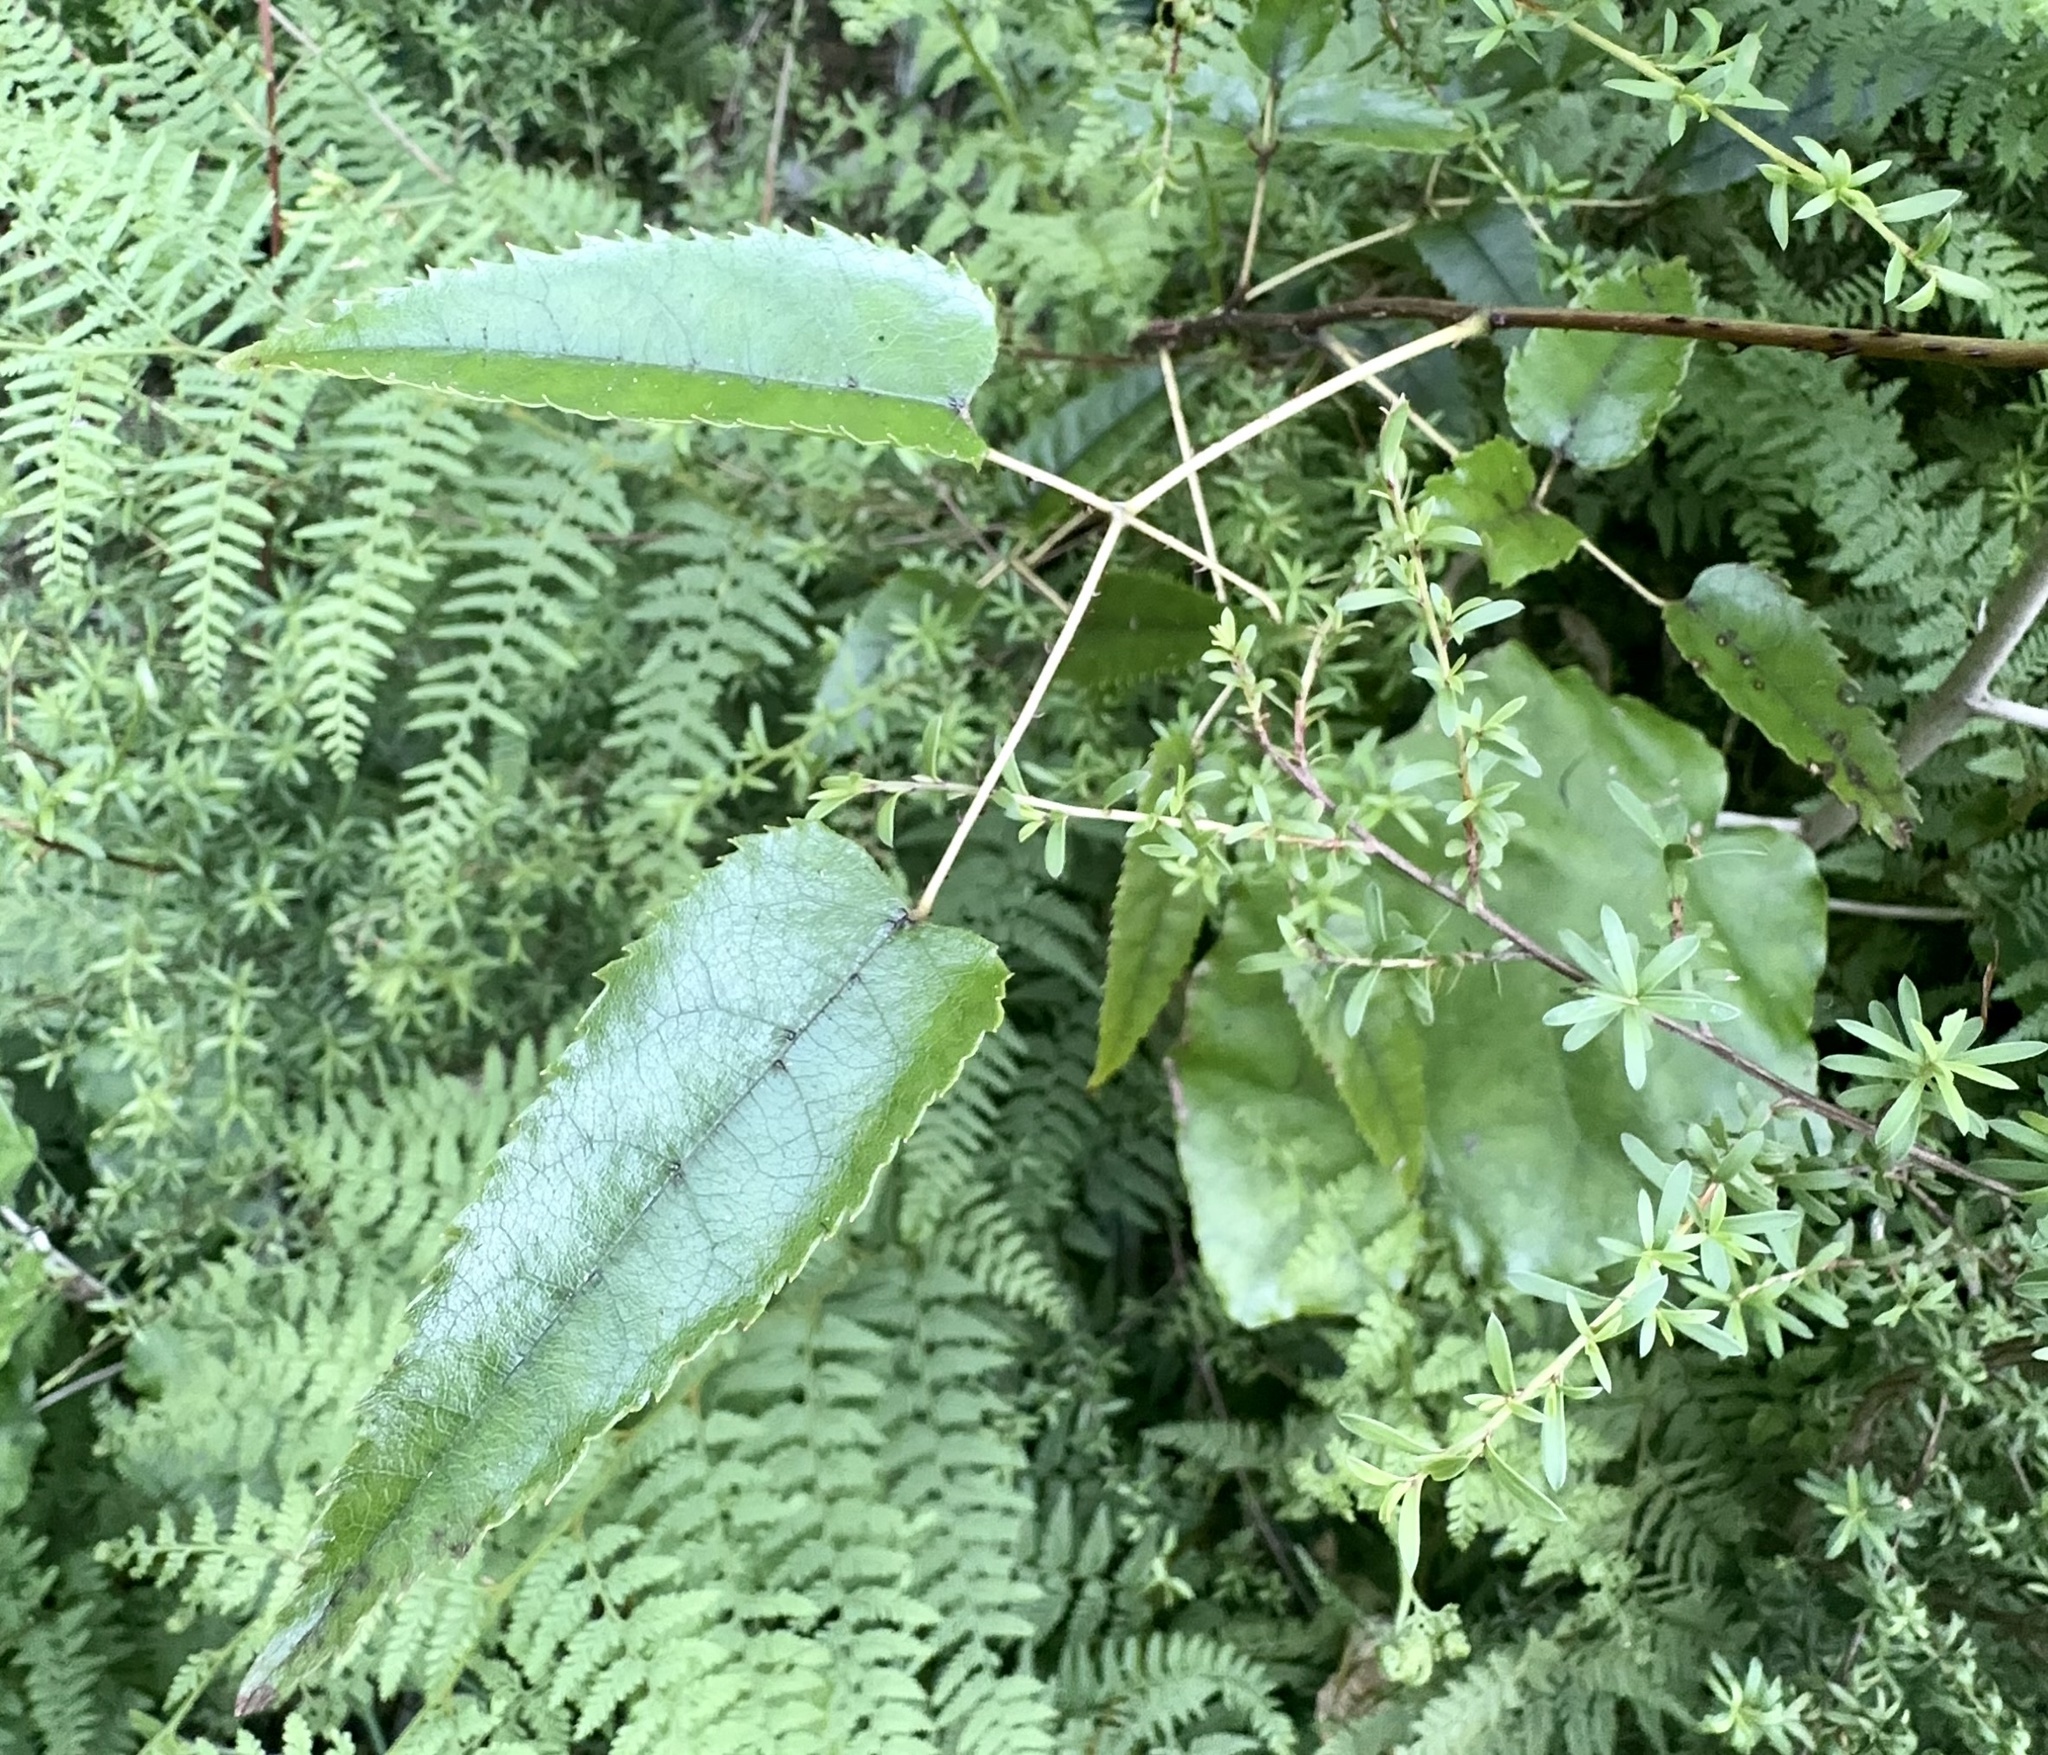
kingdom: Plantae
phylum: Tracheophyta
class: Magnoliopsida
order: Rosales
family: Rosaceae
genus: Rubus
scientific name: Rubus cissoides
